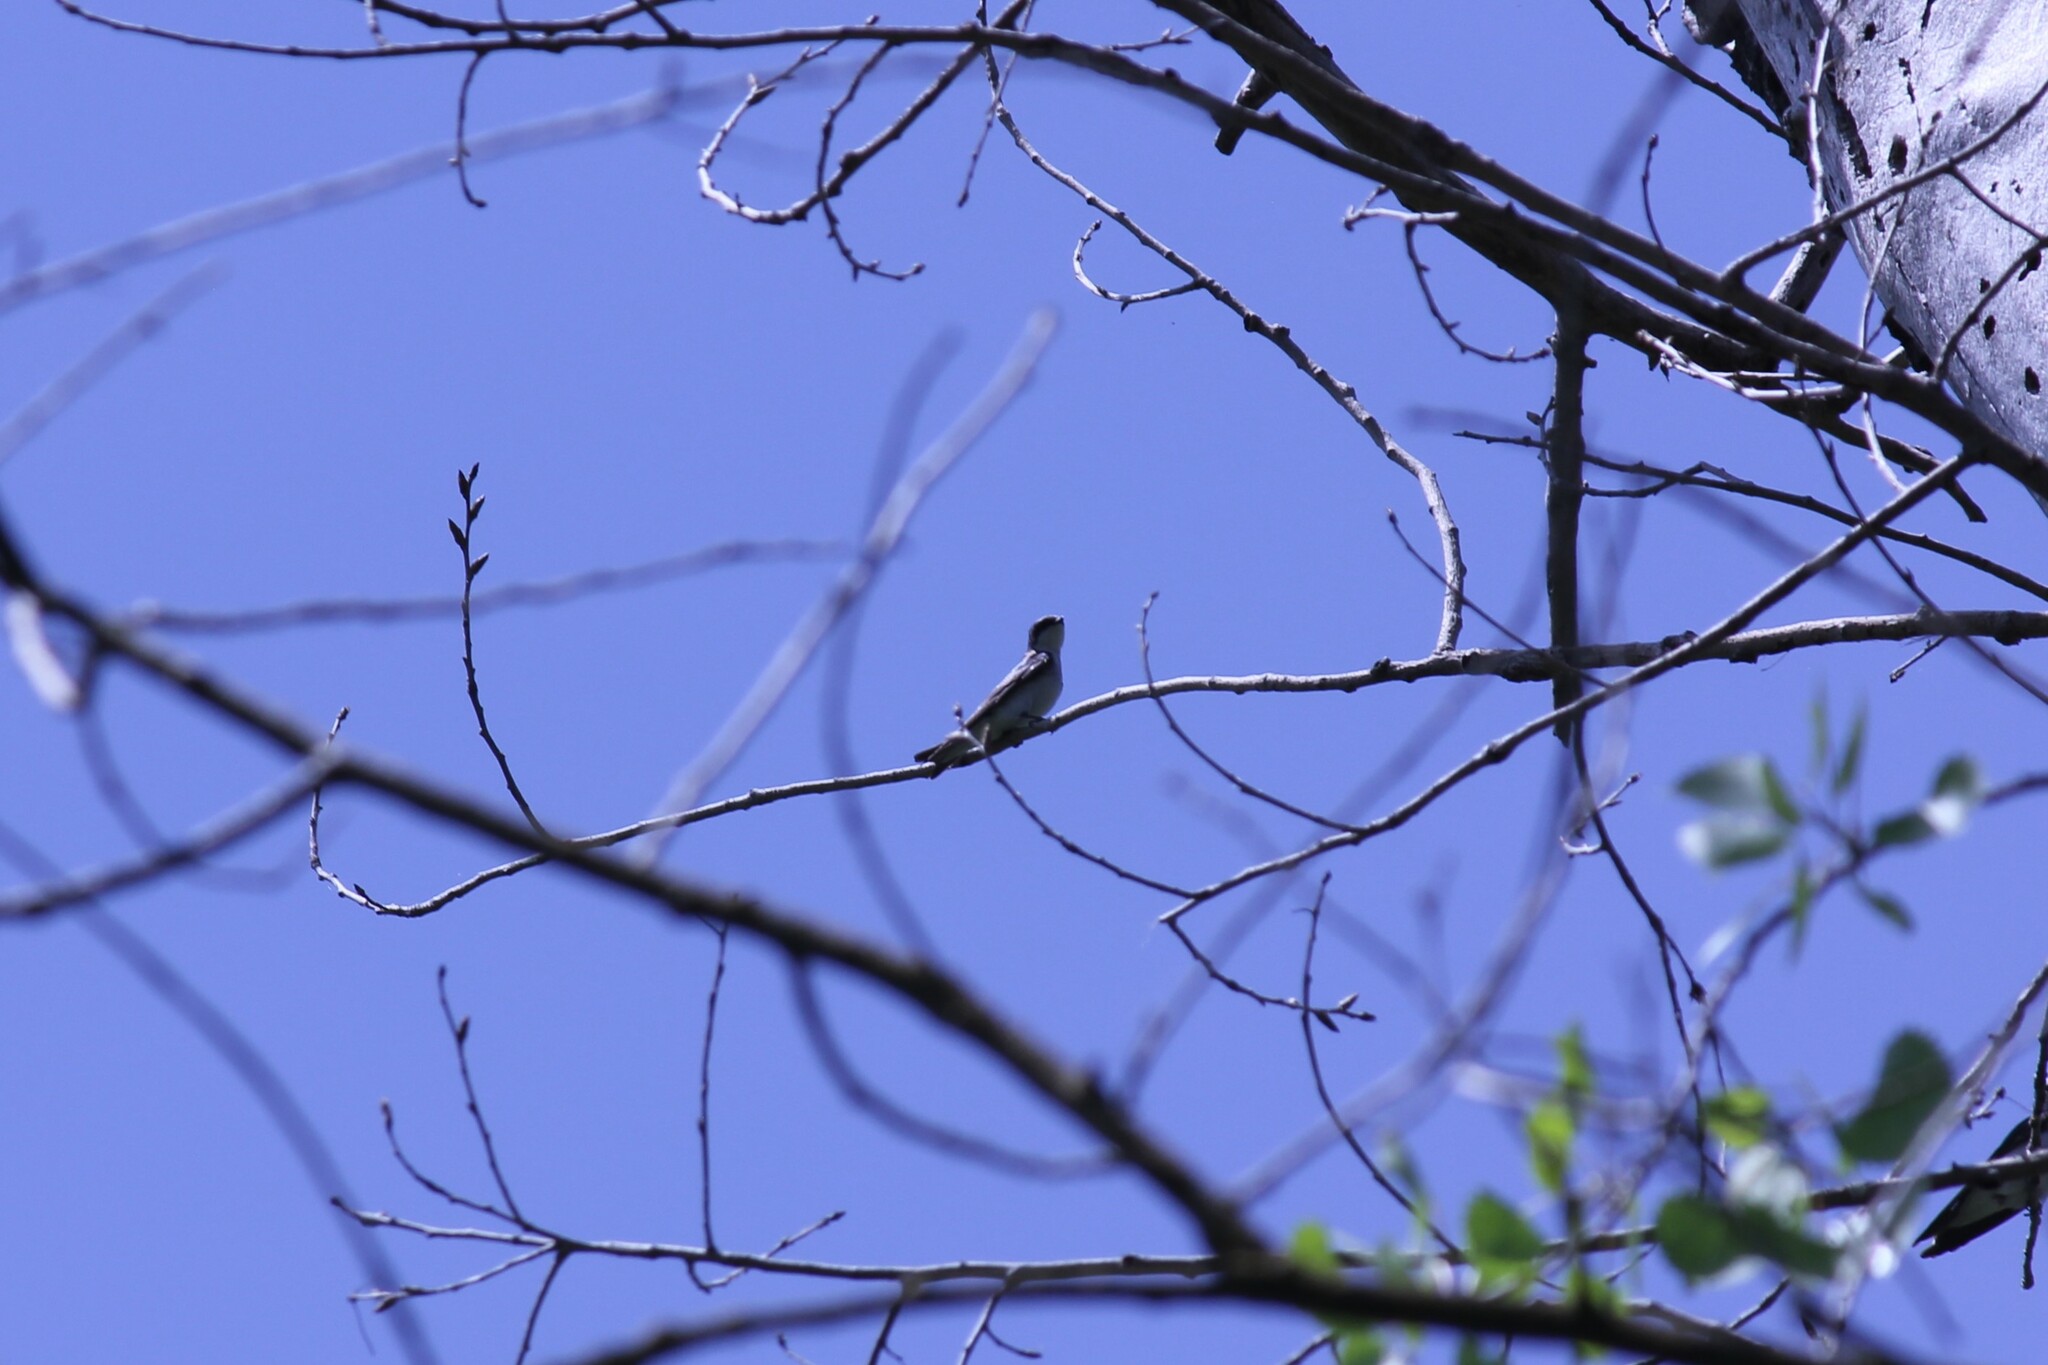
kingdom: Animalia
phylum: Chordata
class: Aves
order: Passeriformes
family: Hirundinidae
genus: Tachycineta
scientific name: Tachycineta bicolor
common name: Tree swallow
